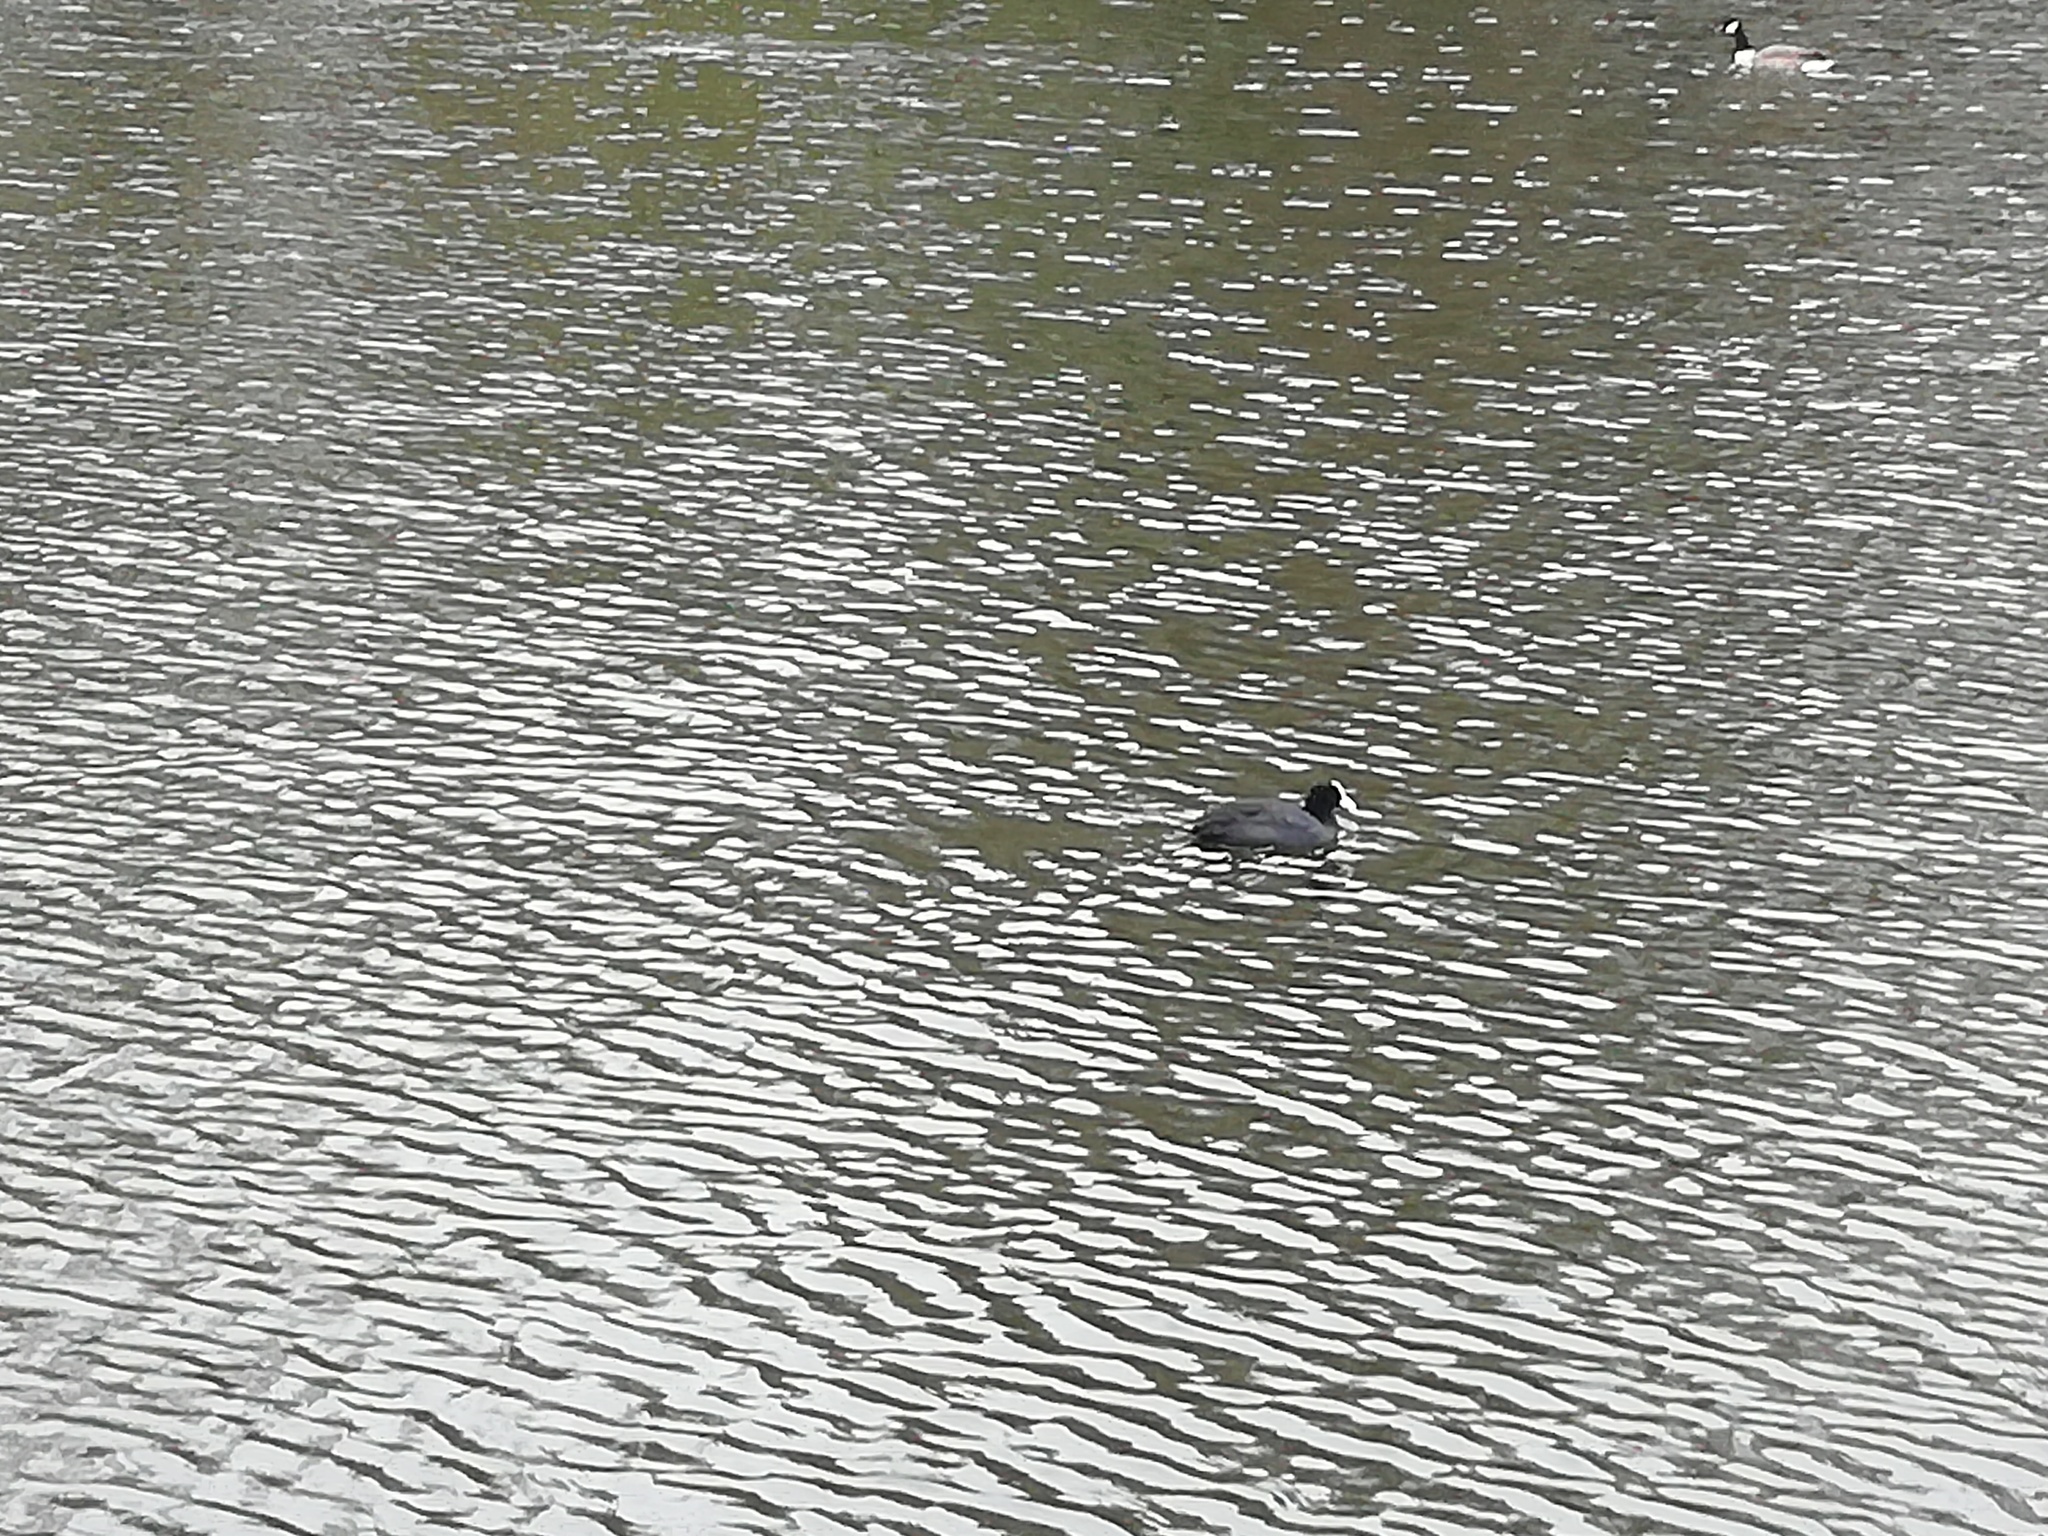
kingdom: Animalia
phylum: Chordata
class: Aves
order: Gruiformes
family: Rallidae
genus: Fulica
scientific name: Fulica atra
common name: Eurasian coot
